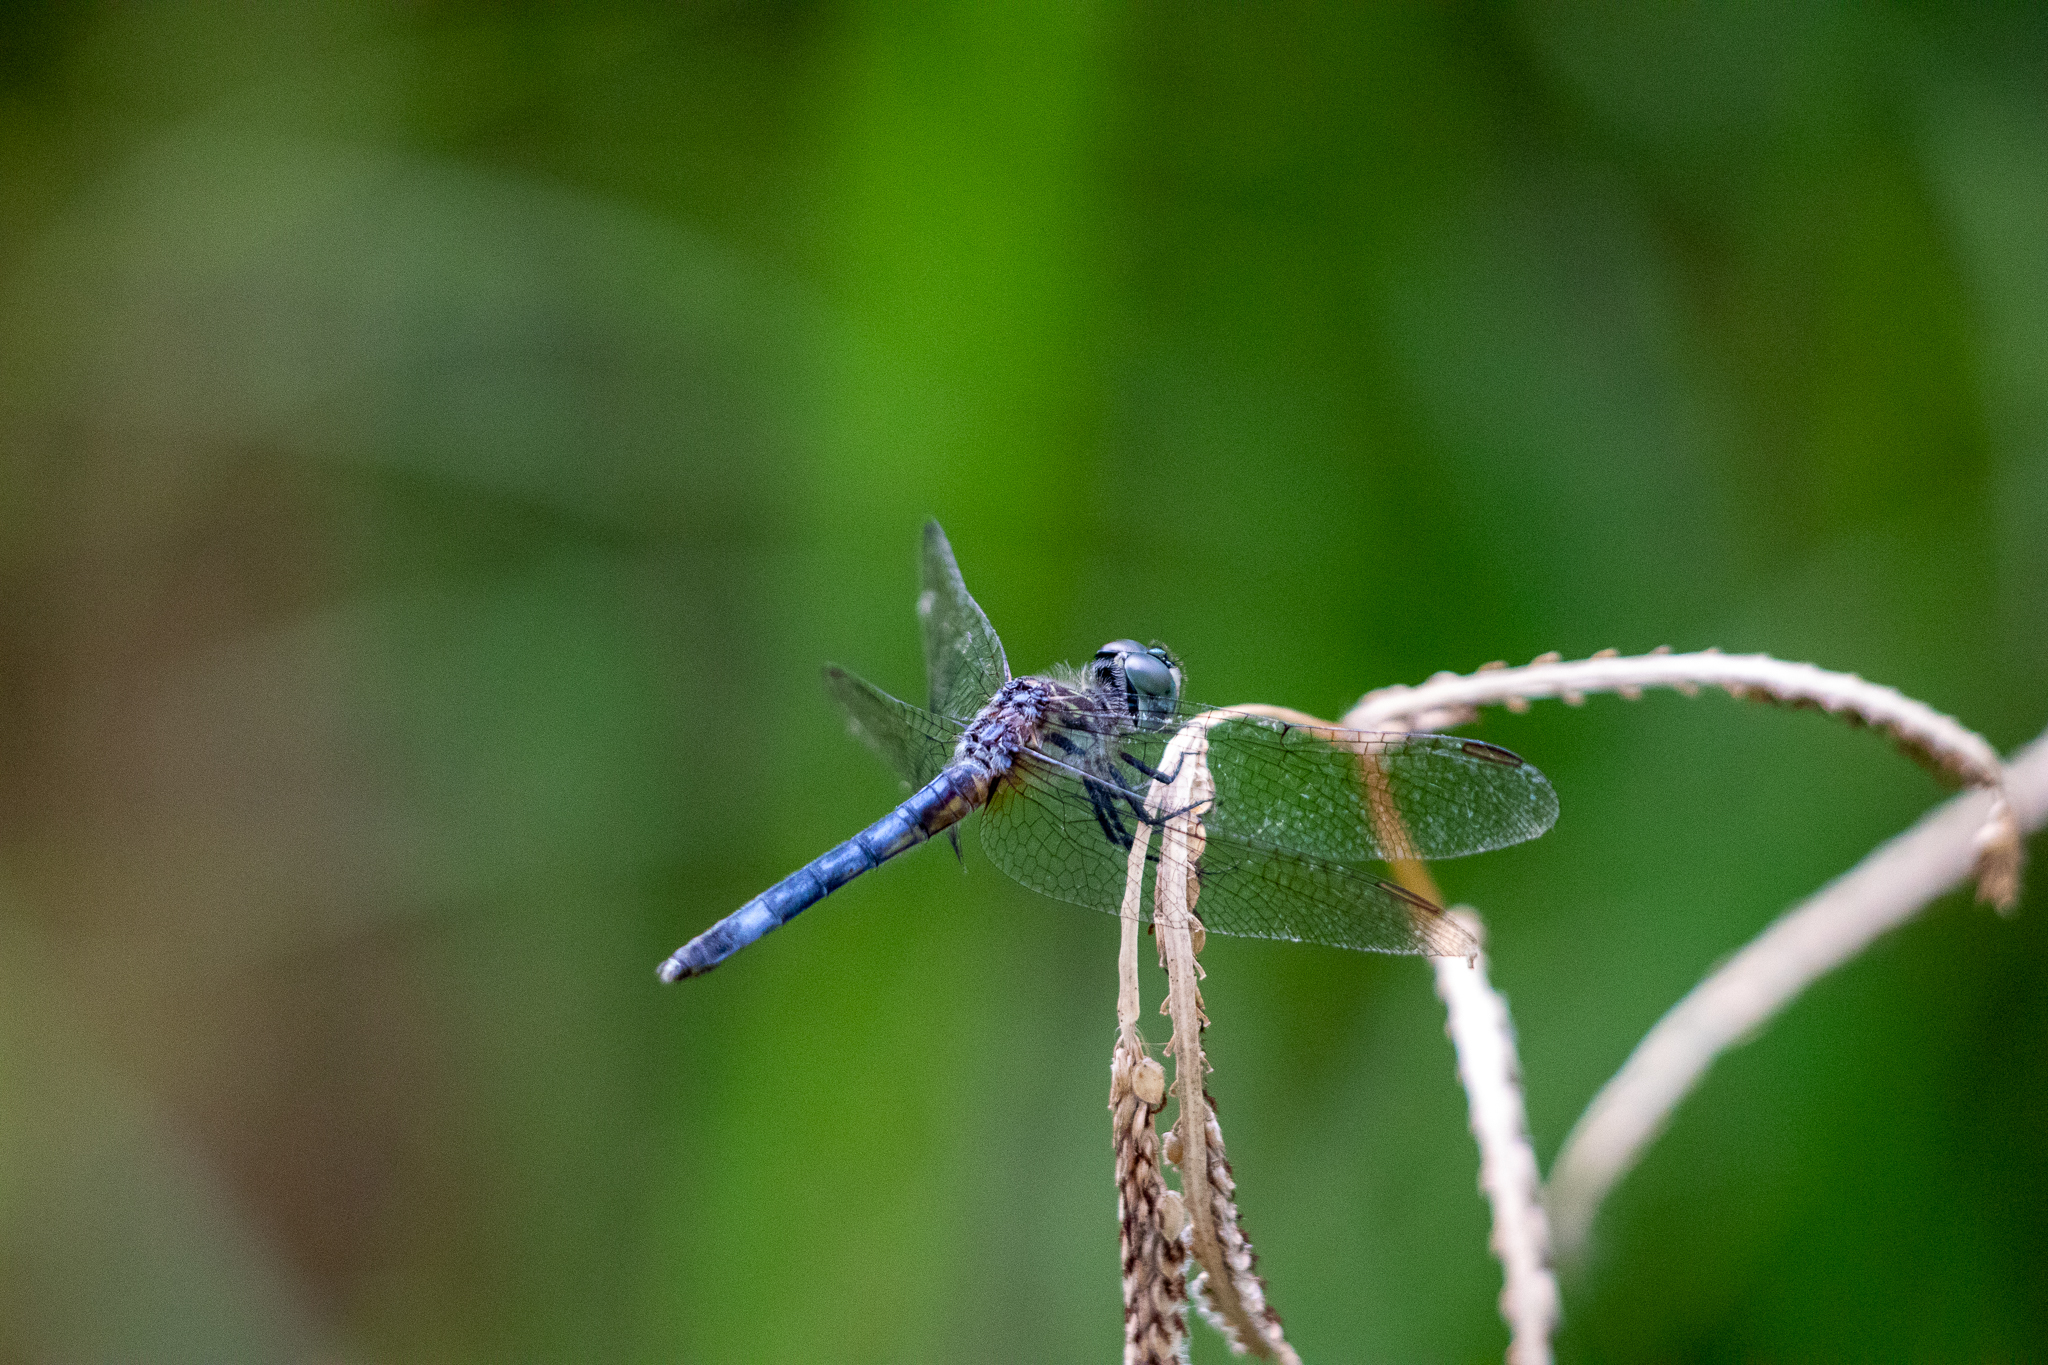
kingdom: Animalia
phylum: Arthropoda
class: Insecta
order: Odonata
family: Libellulidae
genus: Pachydiplax
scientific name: Pachydiplax longipennis
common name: Blue dasher
